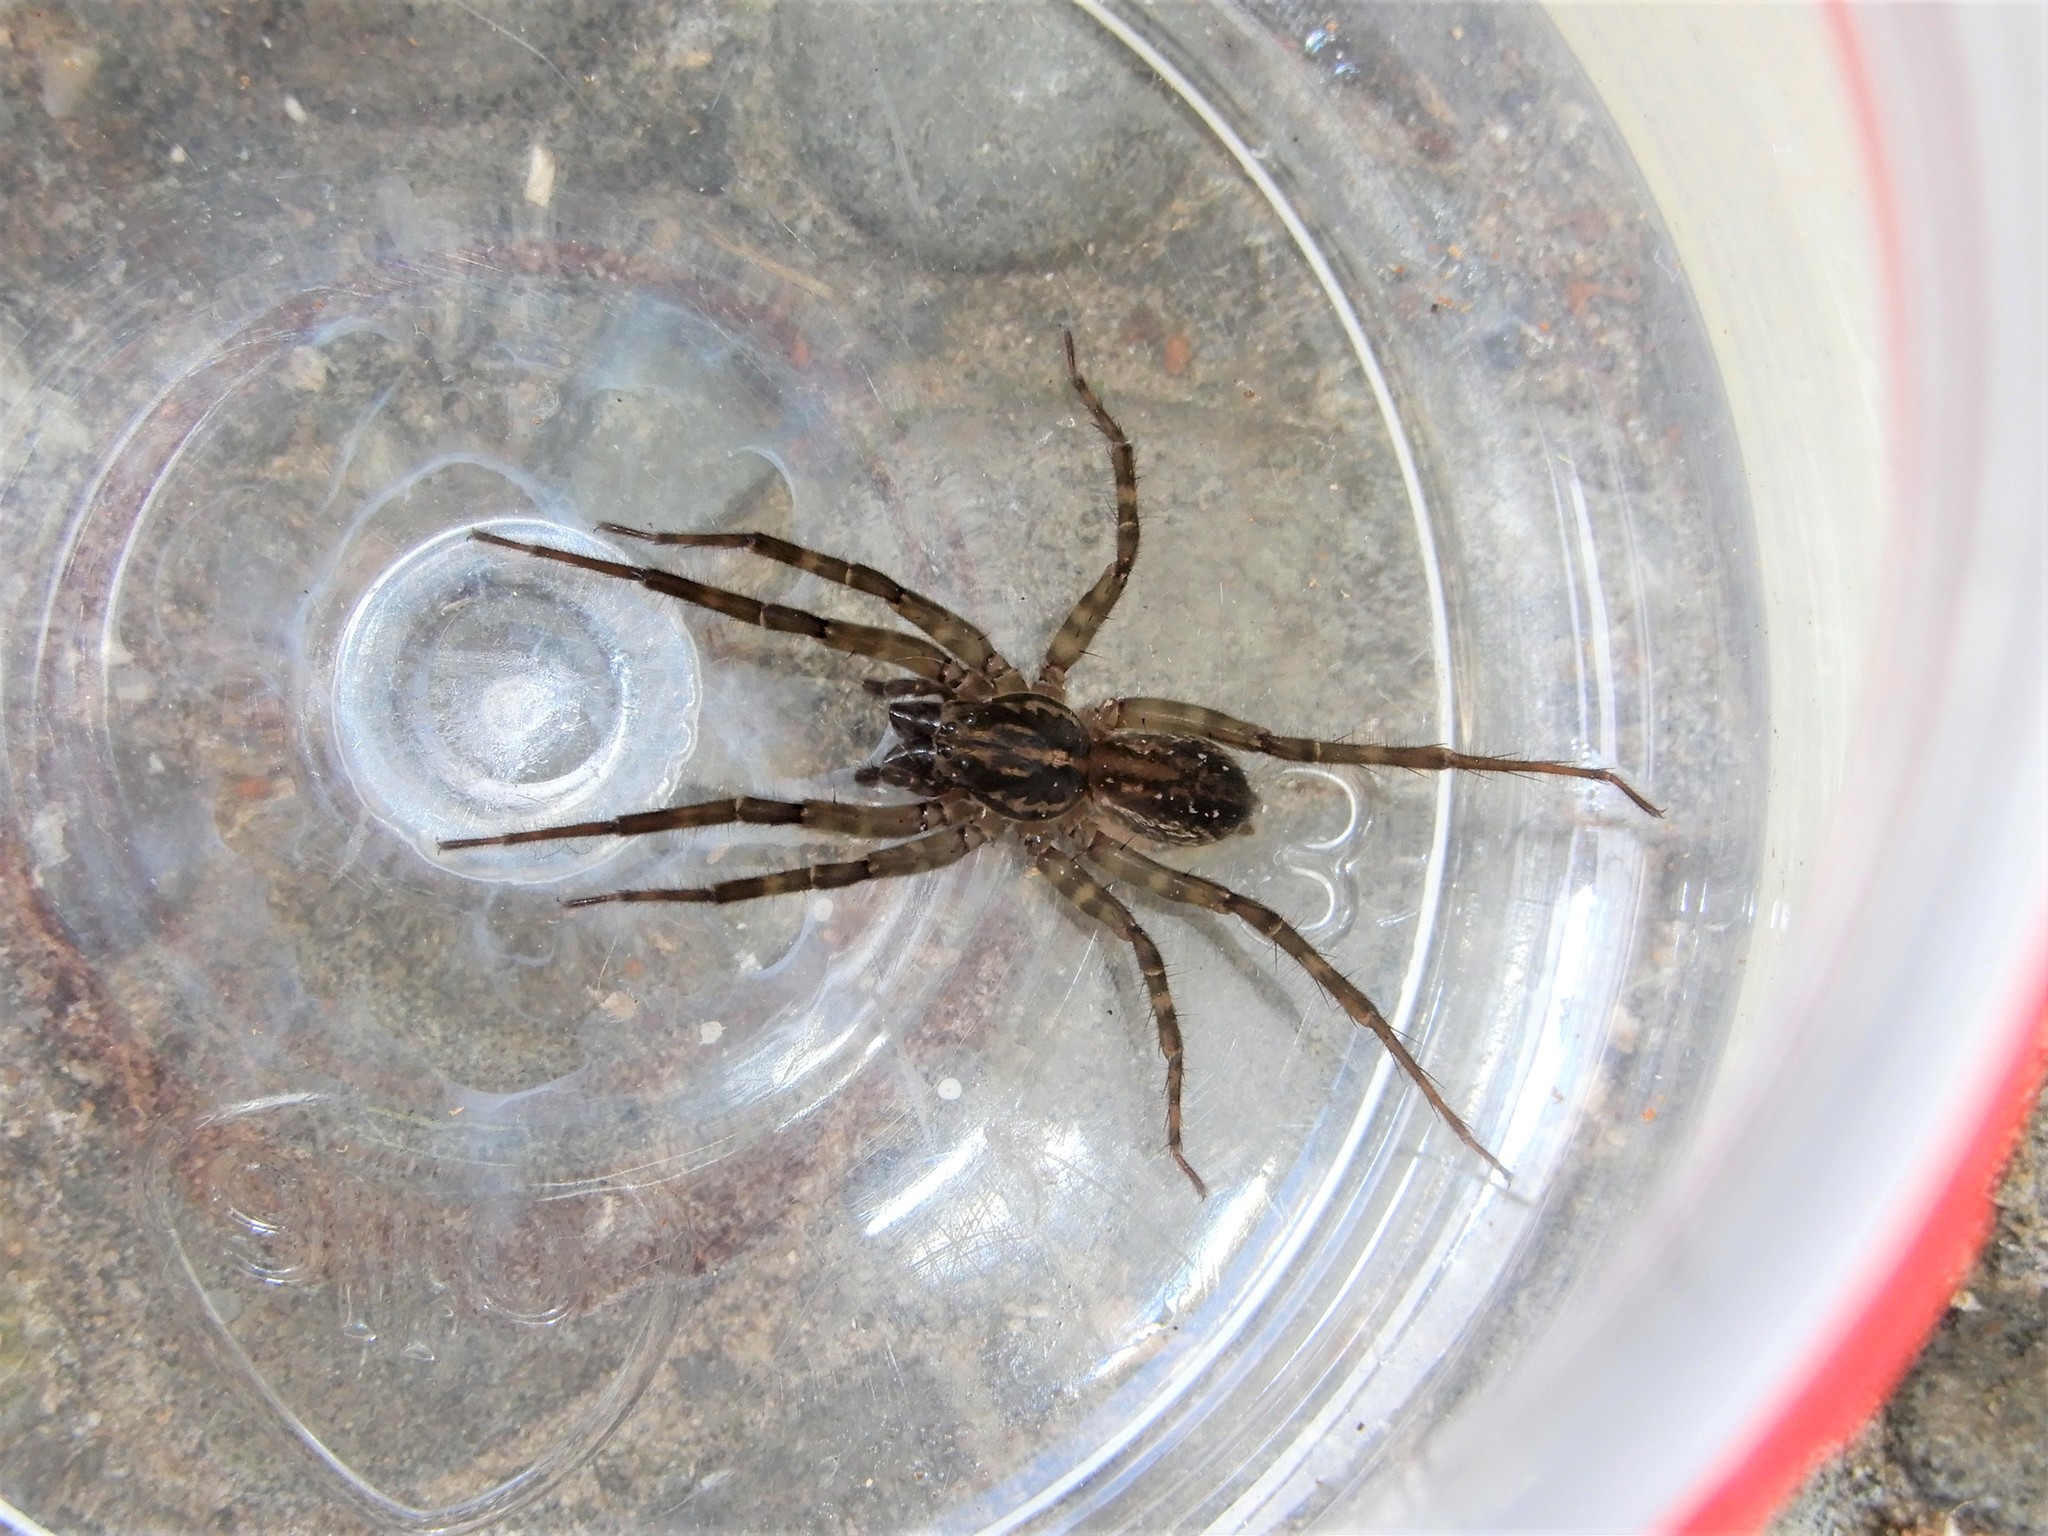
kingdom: Animalia
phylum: Arthropoda
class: Arachnida
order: Araneae
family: Lycosidae
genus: Allotrochosina
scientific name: Allotrochosina schauinslandi
